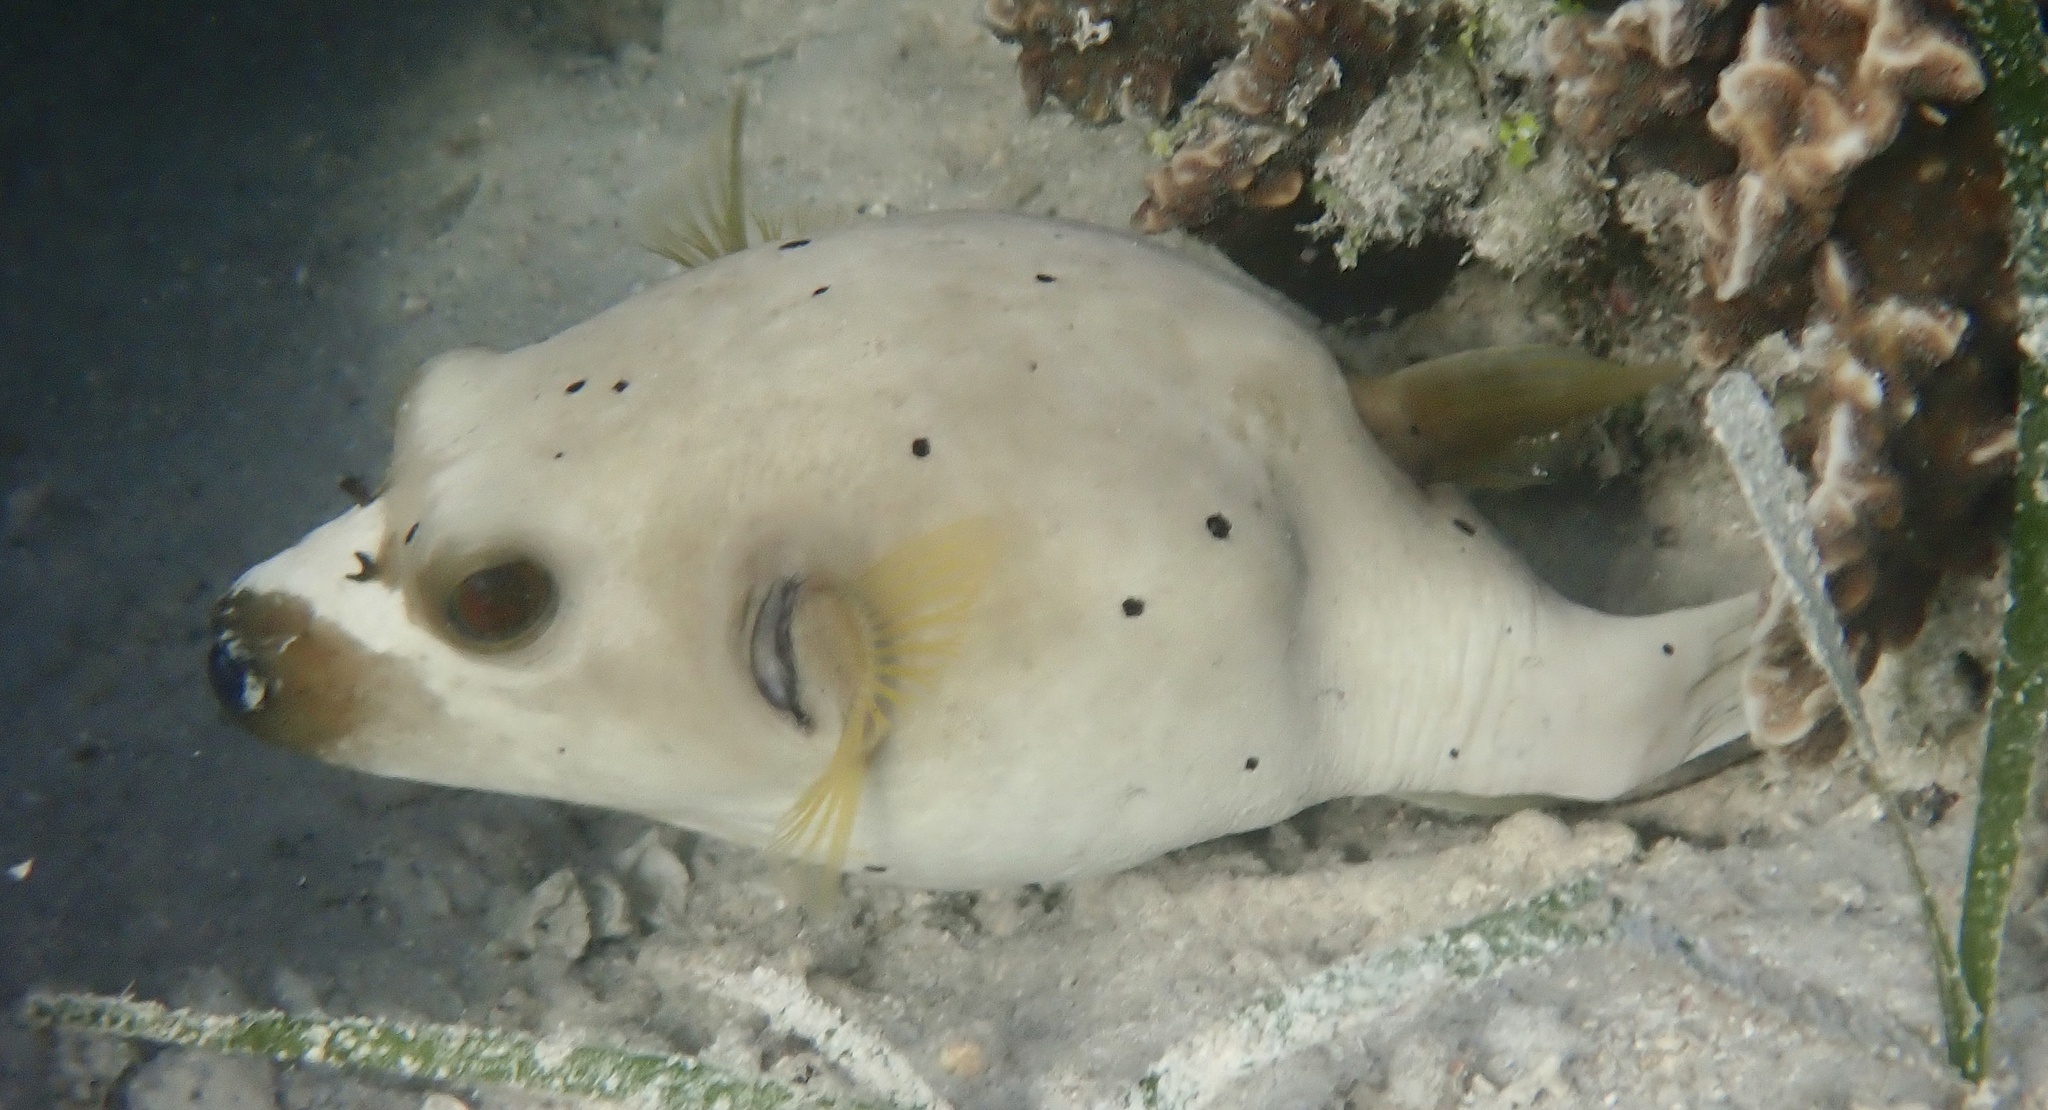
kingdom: Animalia
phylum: Chordata
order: Tetraodontiformes
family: Tetraodontidae
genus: Arothron
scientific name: Arothron nigropunctatus
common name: Black spotted blow fish
